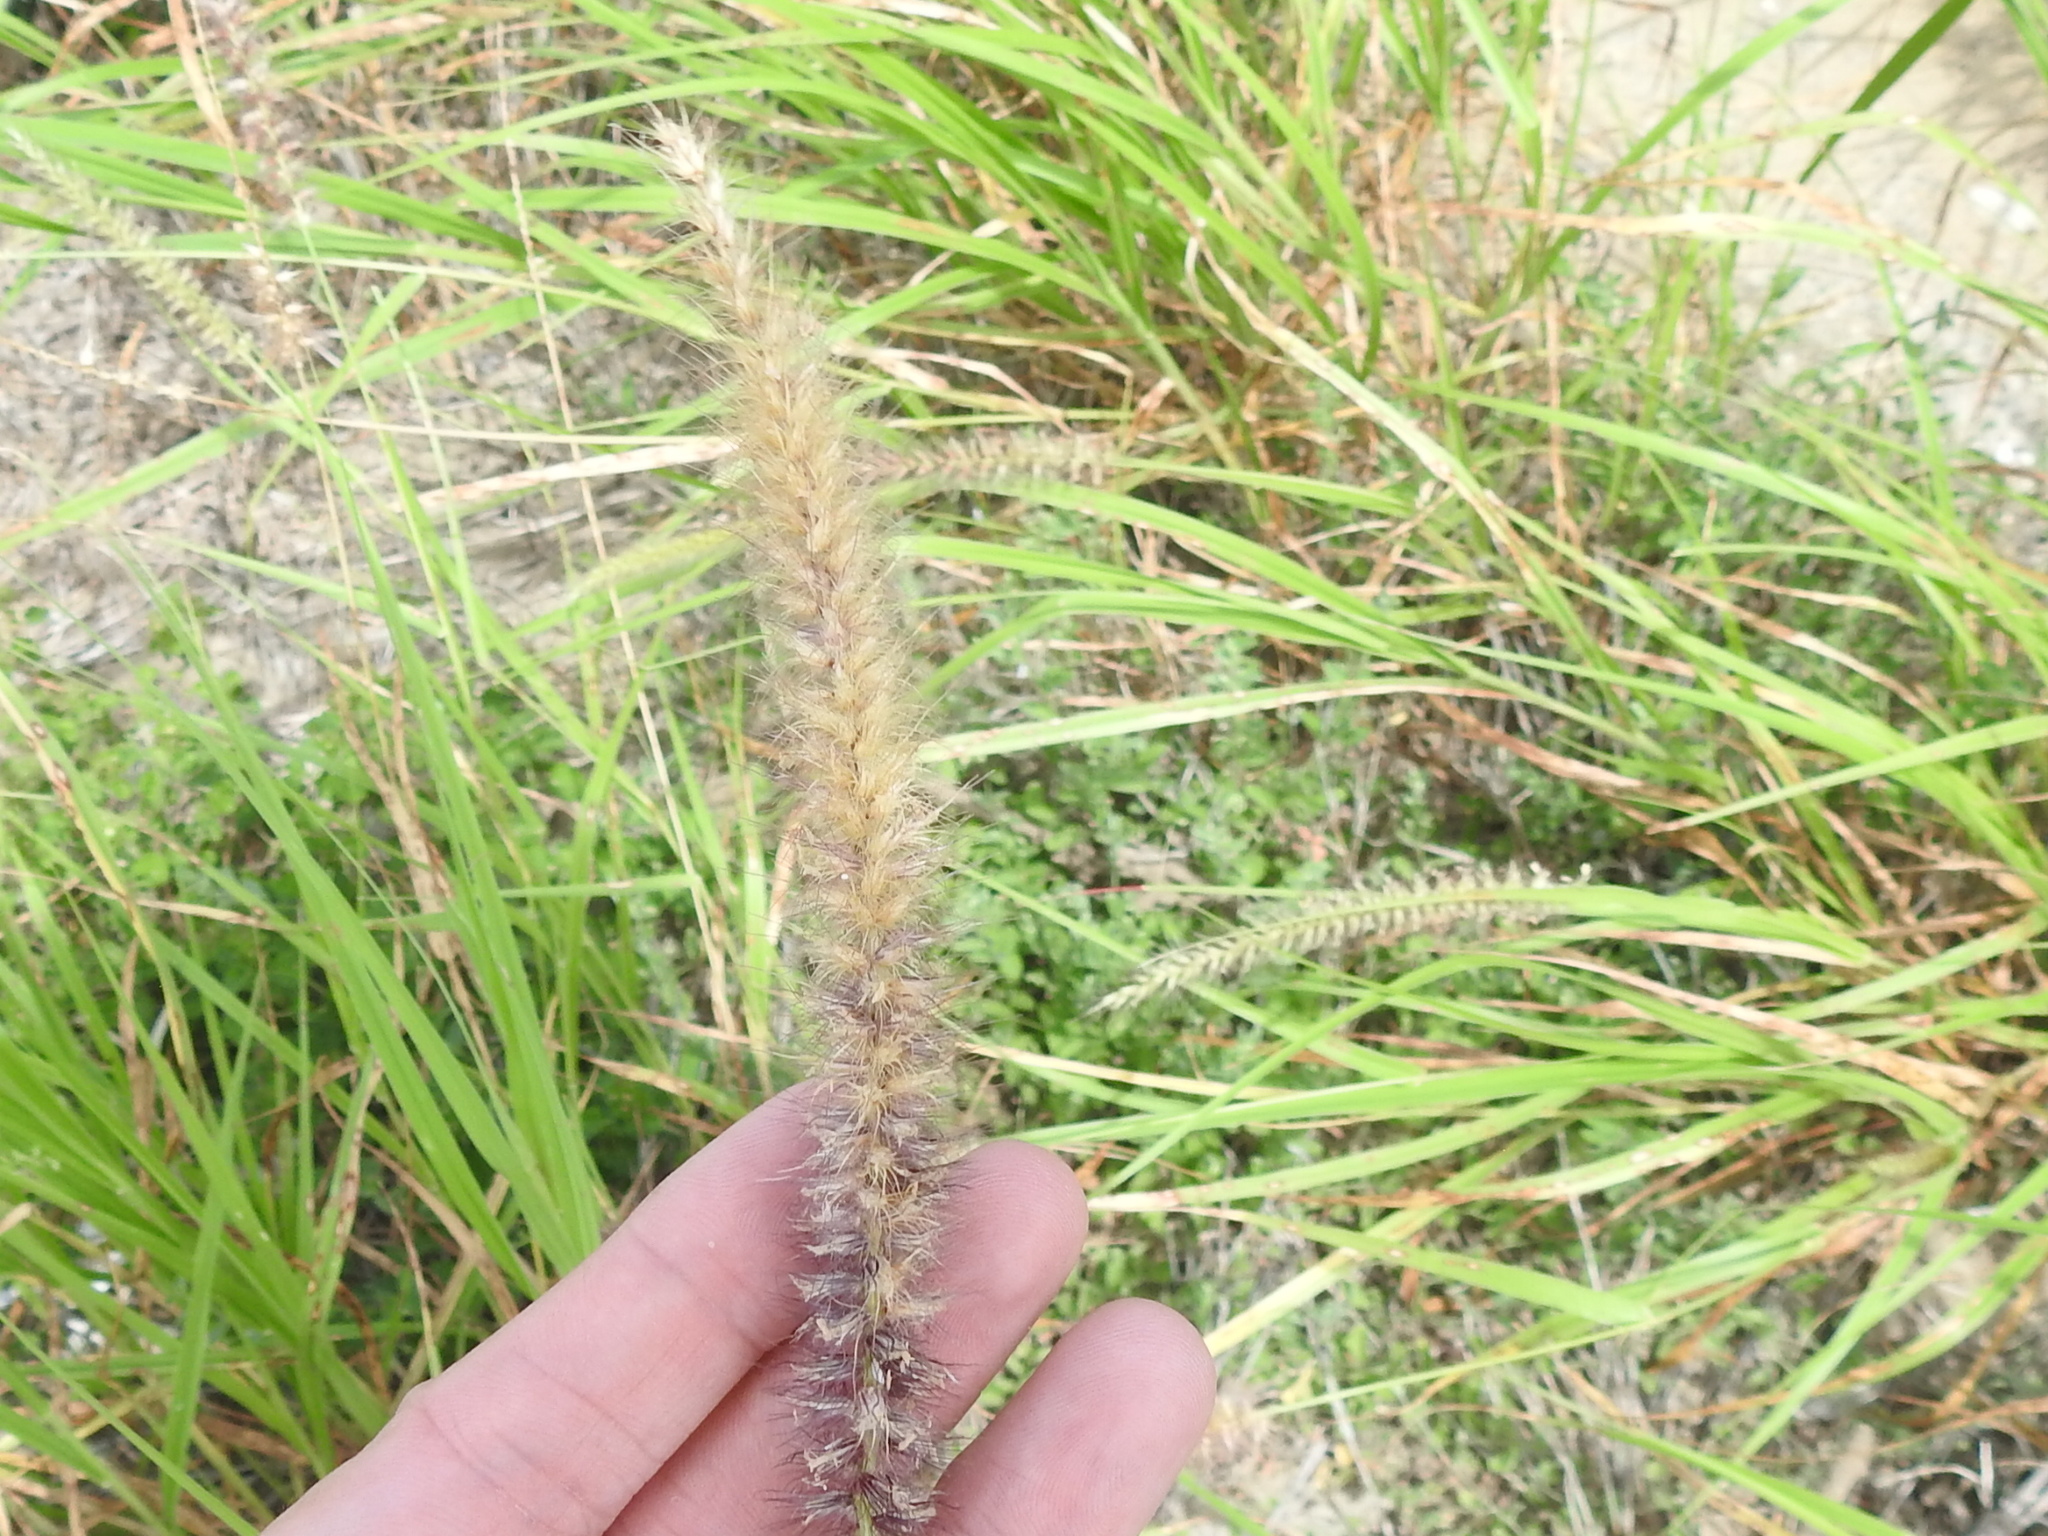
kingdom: Plantae
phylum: Tracheophyta
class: Liliopsida
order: Poales
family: Poaceae
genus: Cenchrus
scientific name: Cenchrus ciliaris
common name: Buffelgrass
